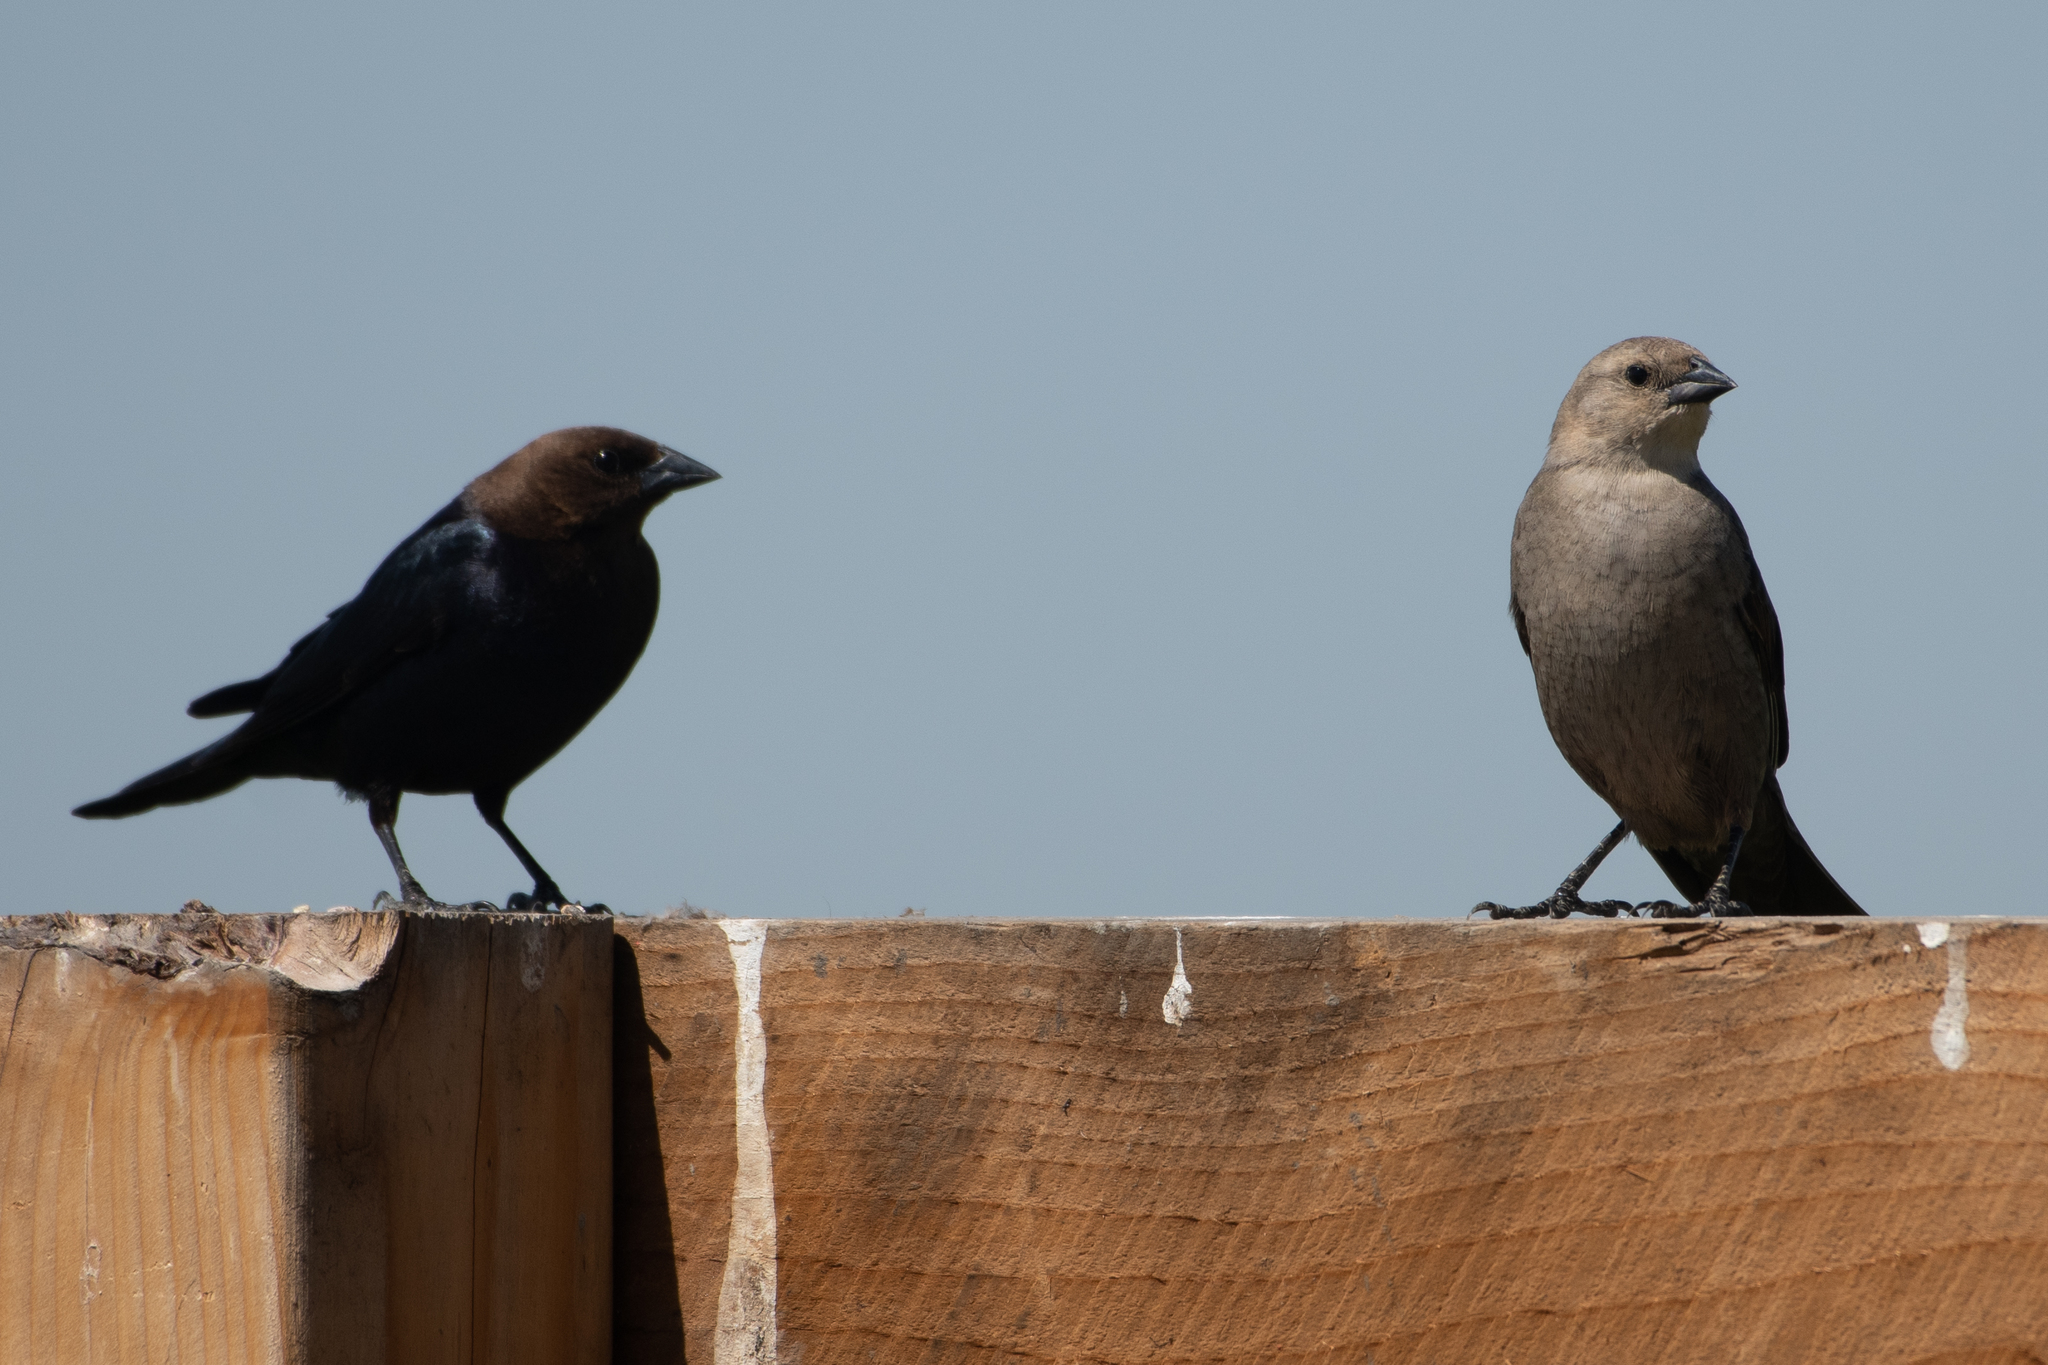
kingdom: Animalia
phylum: Chordata
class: Aves
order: Passeriformes
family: Icteridae
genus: Molothrus
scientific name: Molothrus ater
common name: Brown-headed cowbird
